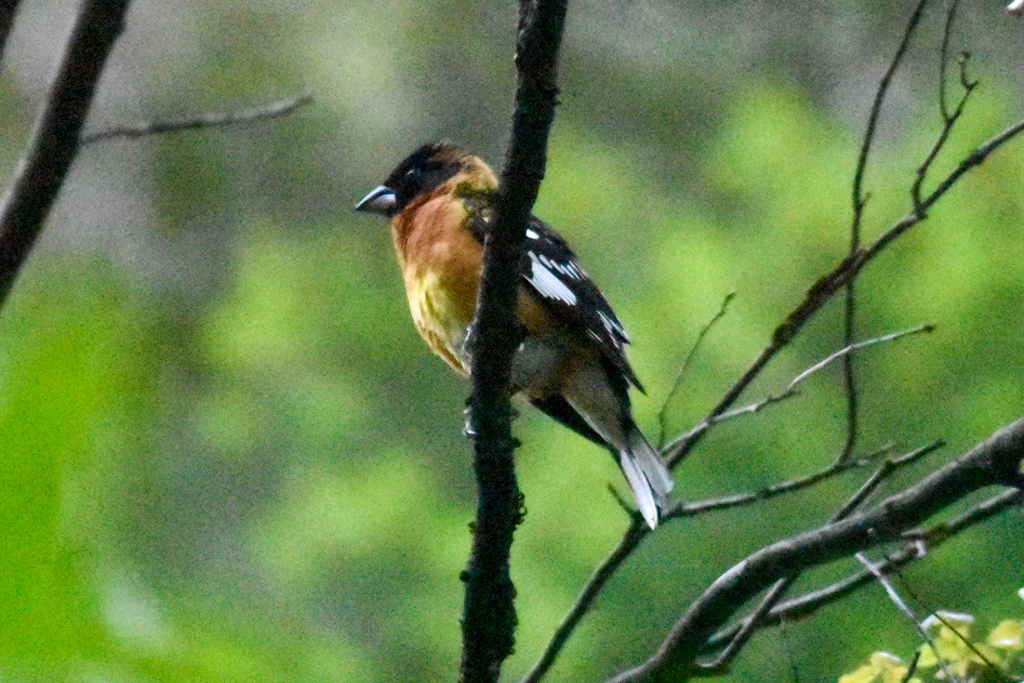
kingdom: Animalia
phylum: Chordata
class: Aves
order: Passeriformes
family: Cardinalidae
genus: Pheucticus
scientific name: Pheucticus melanocephalus
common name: Black-headed grosbeak
